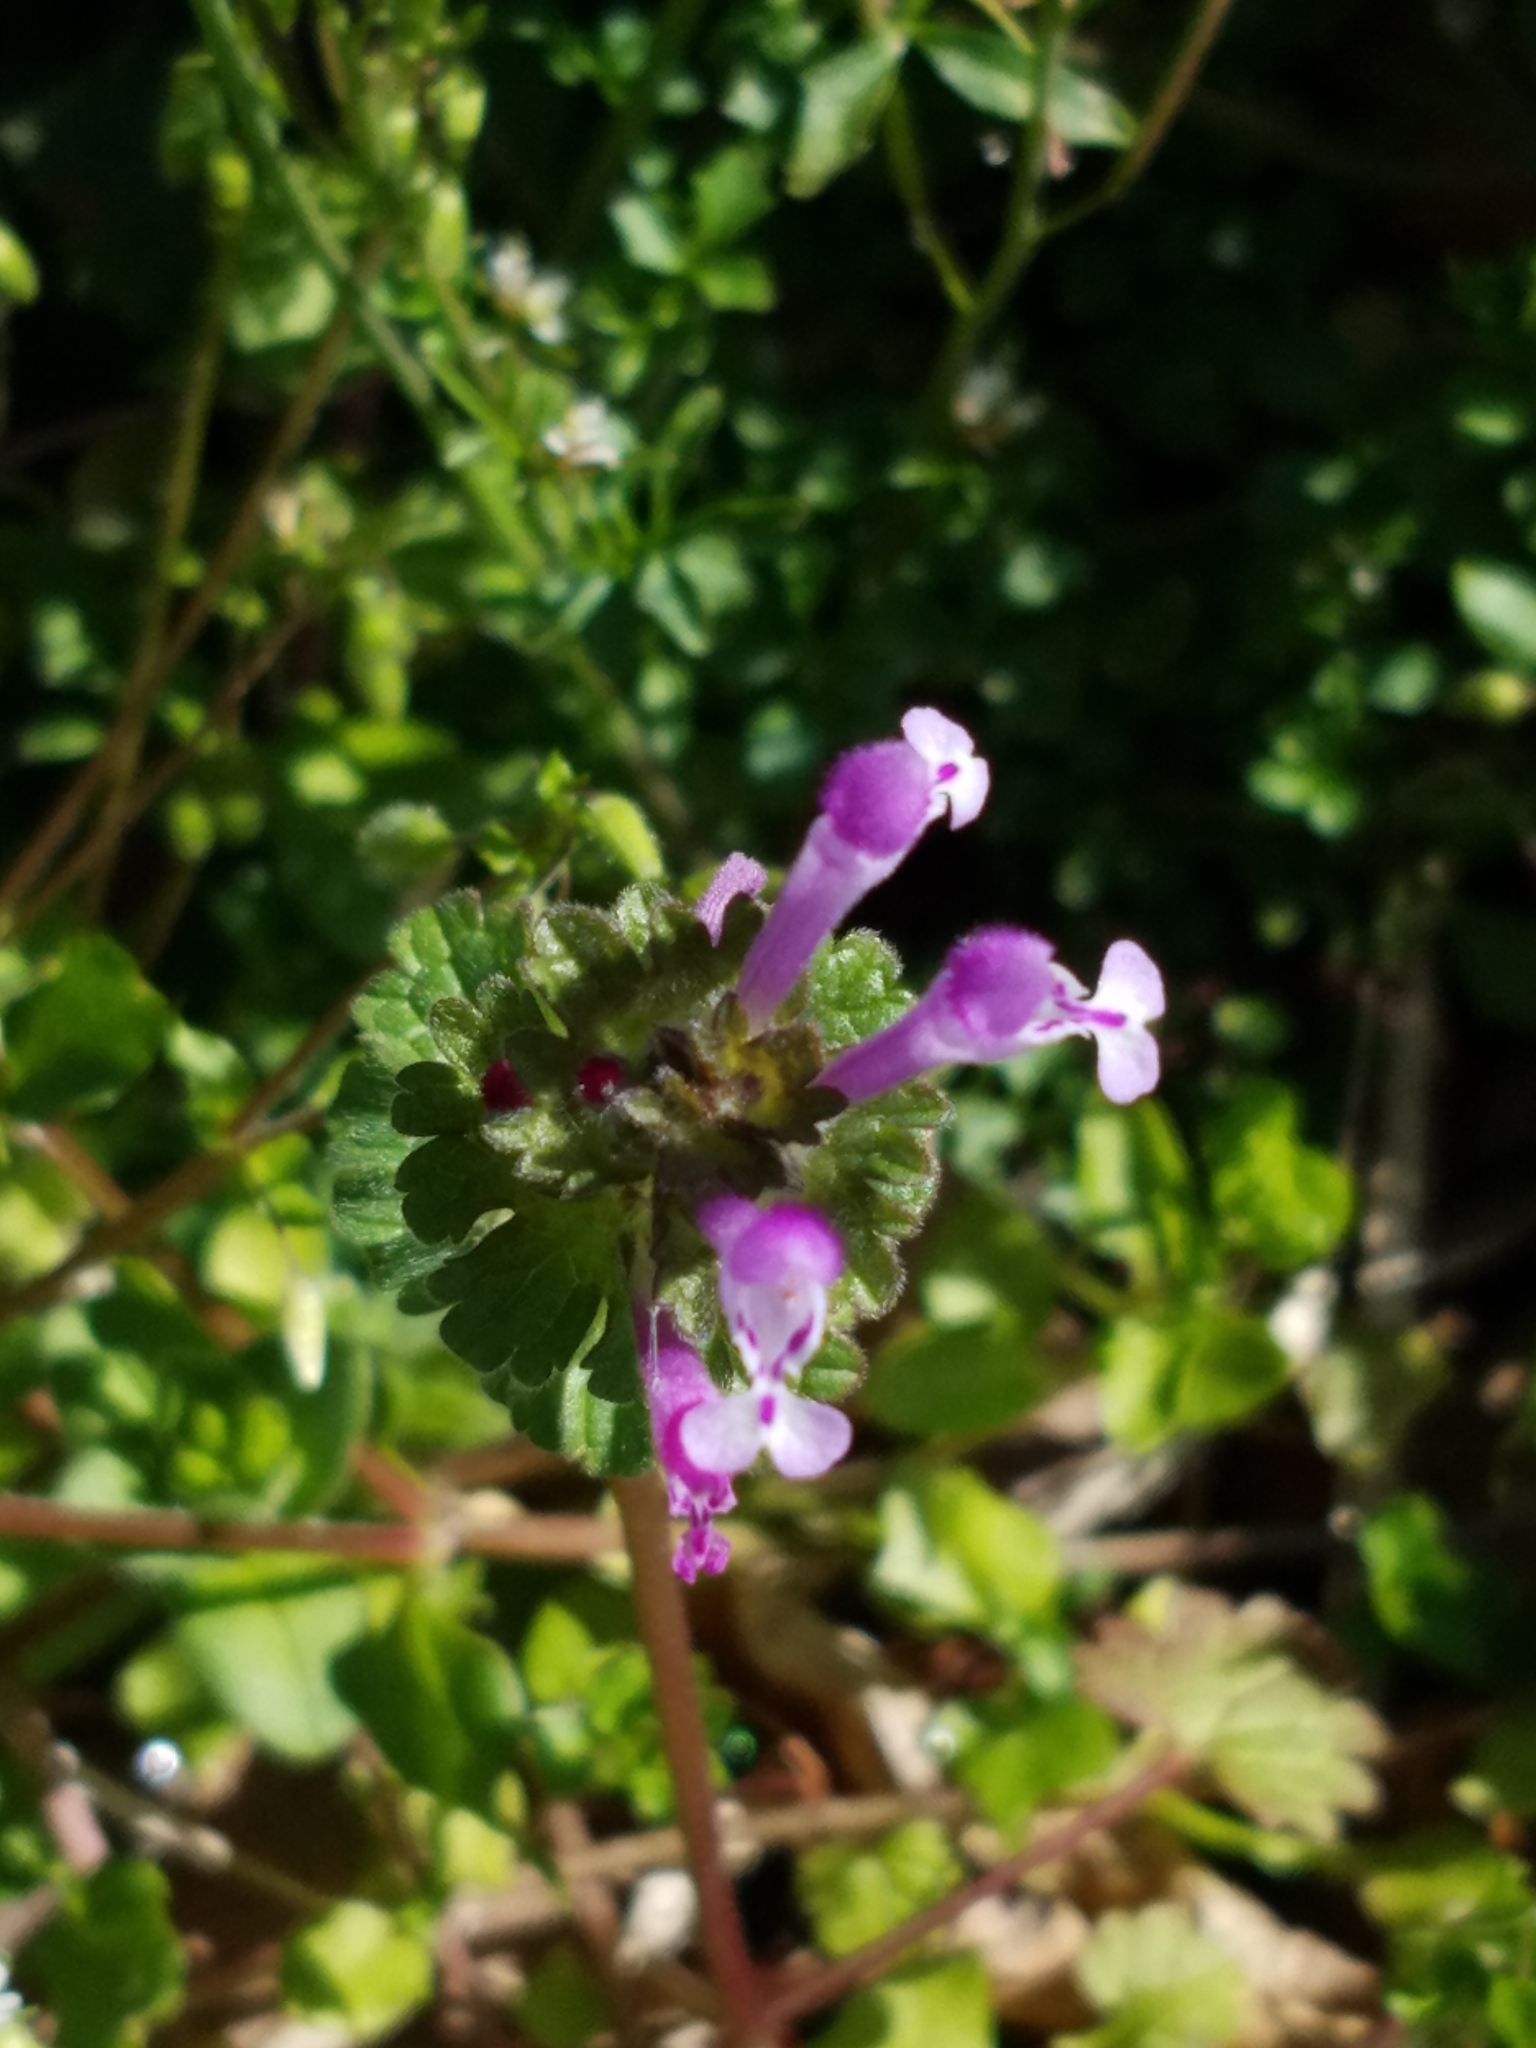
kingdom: Plantae
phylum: Tracheophyta
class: Magnoliopsida
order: Lamiales
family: Lamiaceae
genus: Lamium
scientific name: Lamium amplexicaule
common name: Henbit dead-nettle
